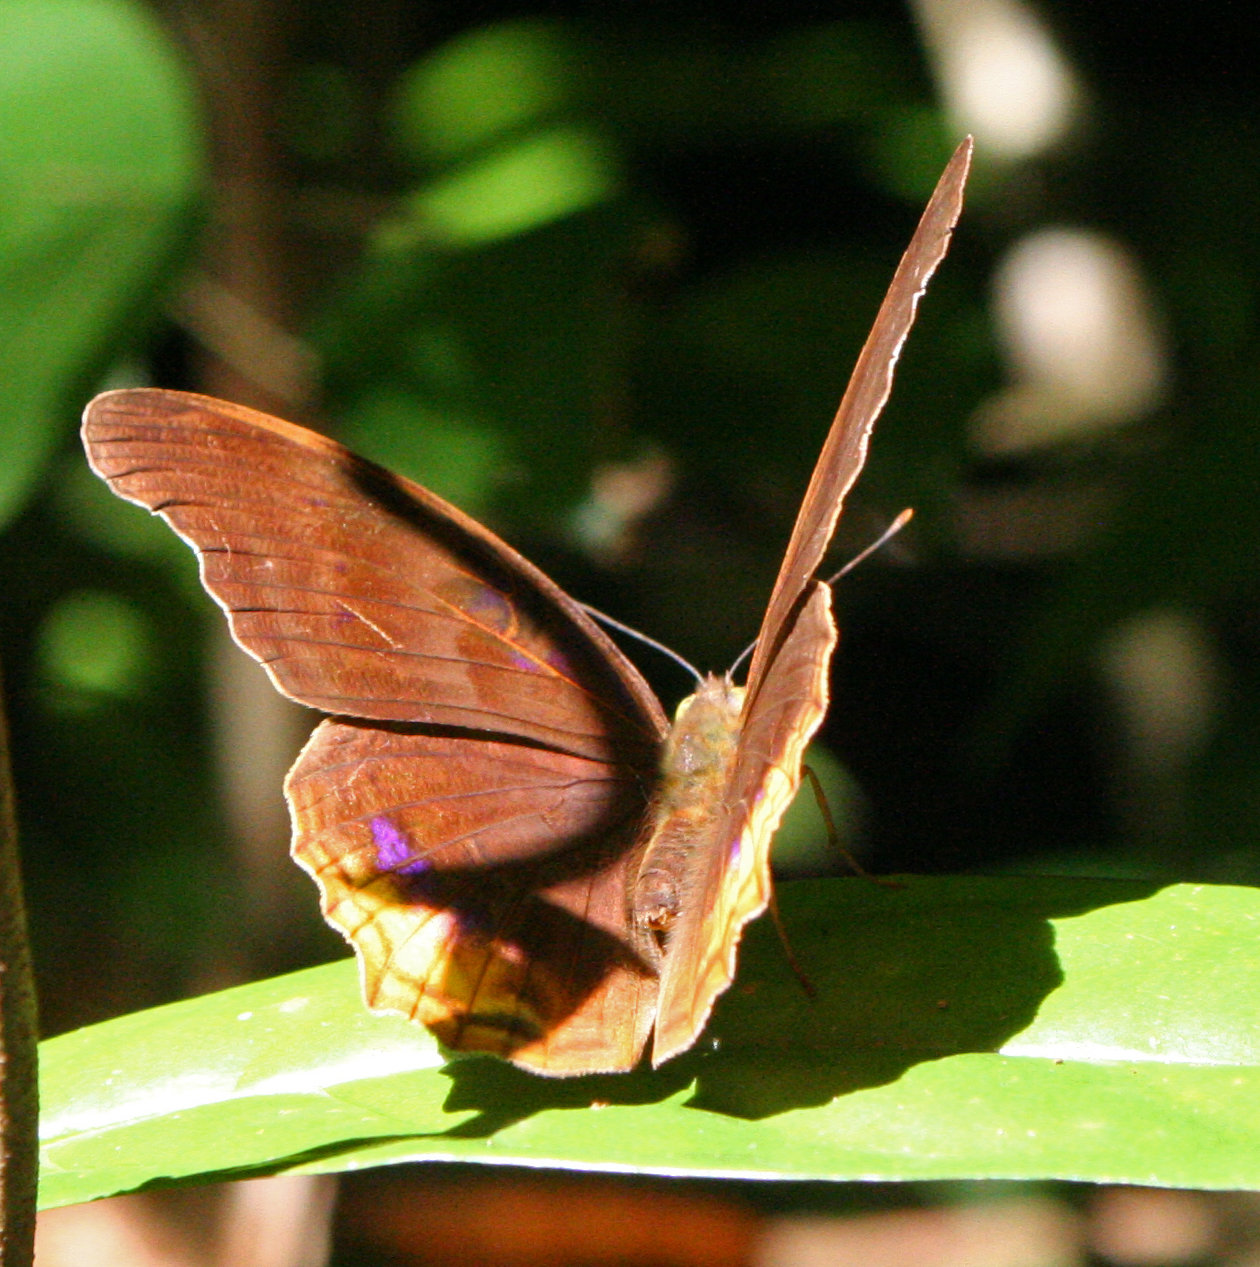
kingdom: Animalia
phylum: Arthropoda
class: Insecta
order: Lepidoptera
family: Nymphalidae
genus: Terinos
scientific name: Terinos terpander
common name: Royal assyrian
